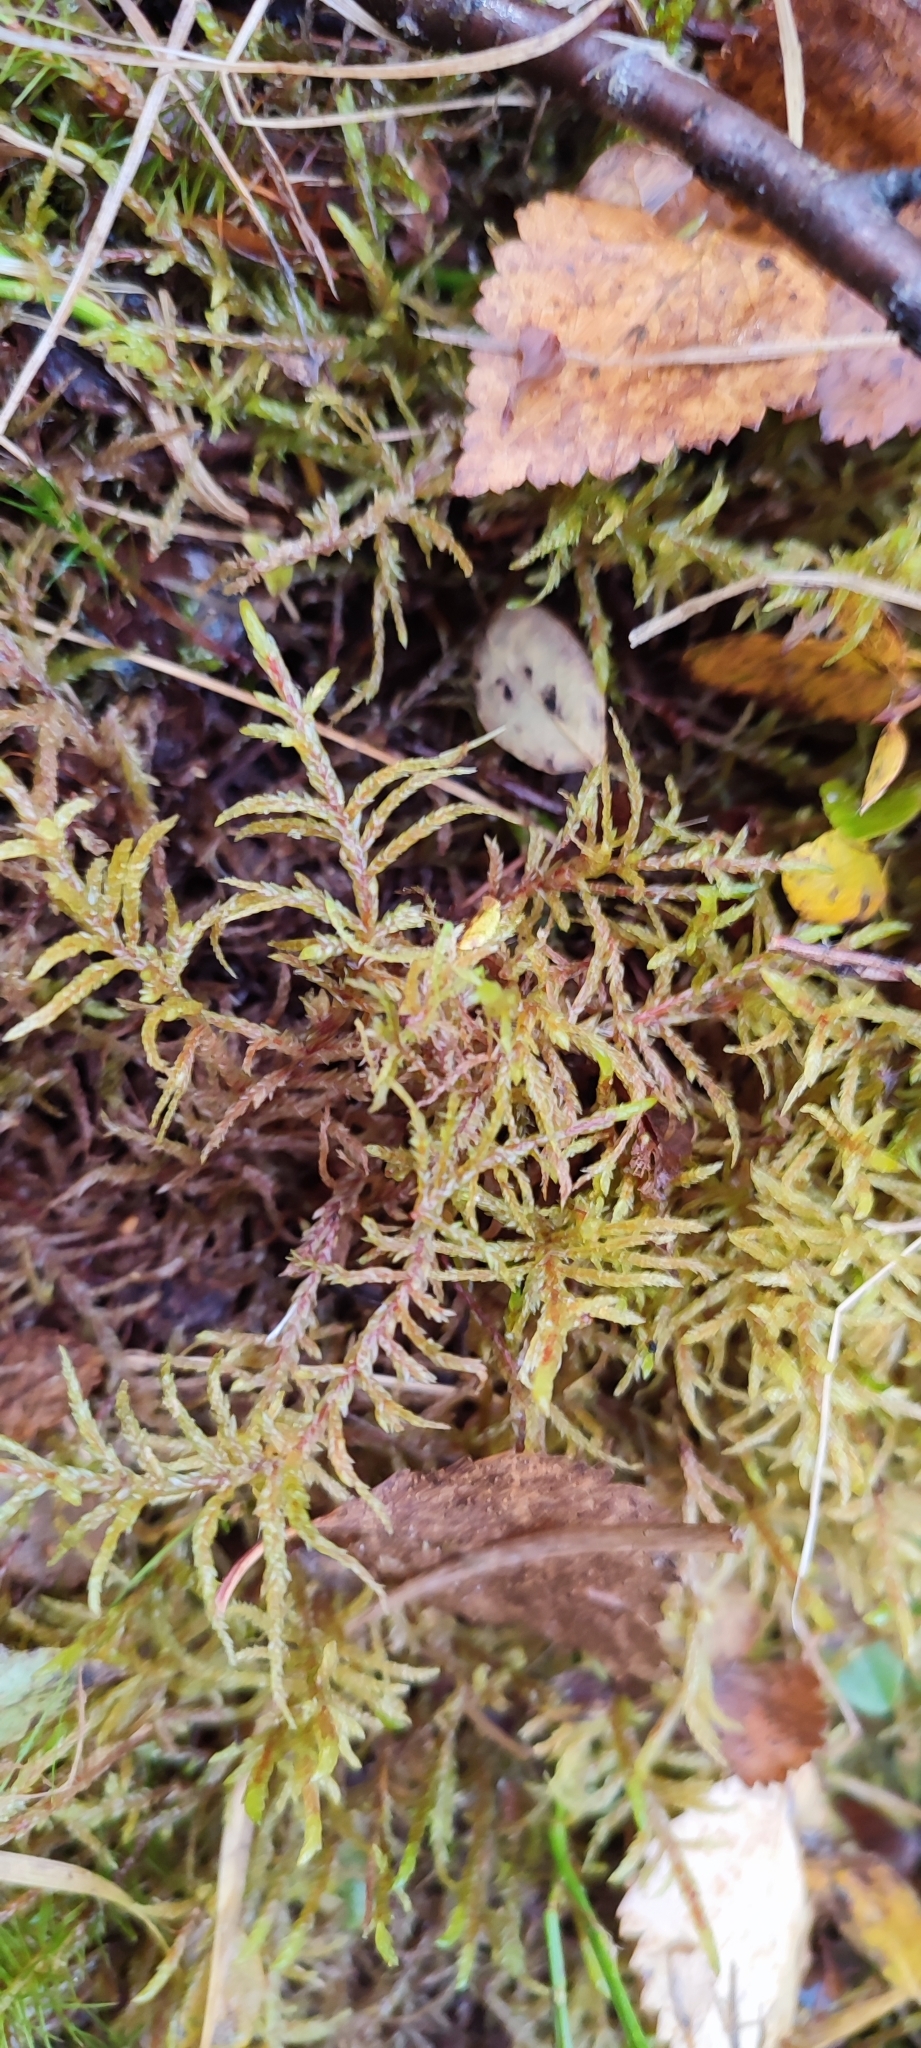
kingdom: Plantae
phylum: Bryophyta
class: Bryopsida
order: Hypnales
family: Hylocomiaceae
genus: Pleurozium
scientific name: Pleurozium schreberi
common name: Red-stemmed feather moss
